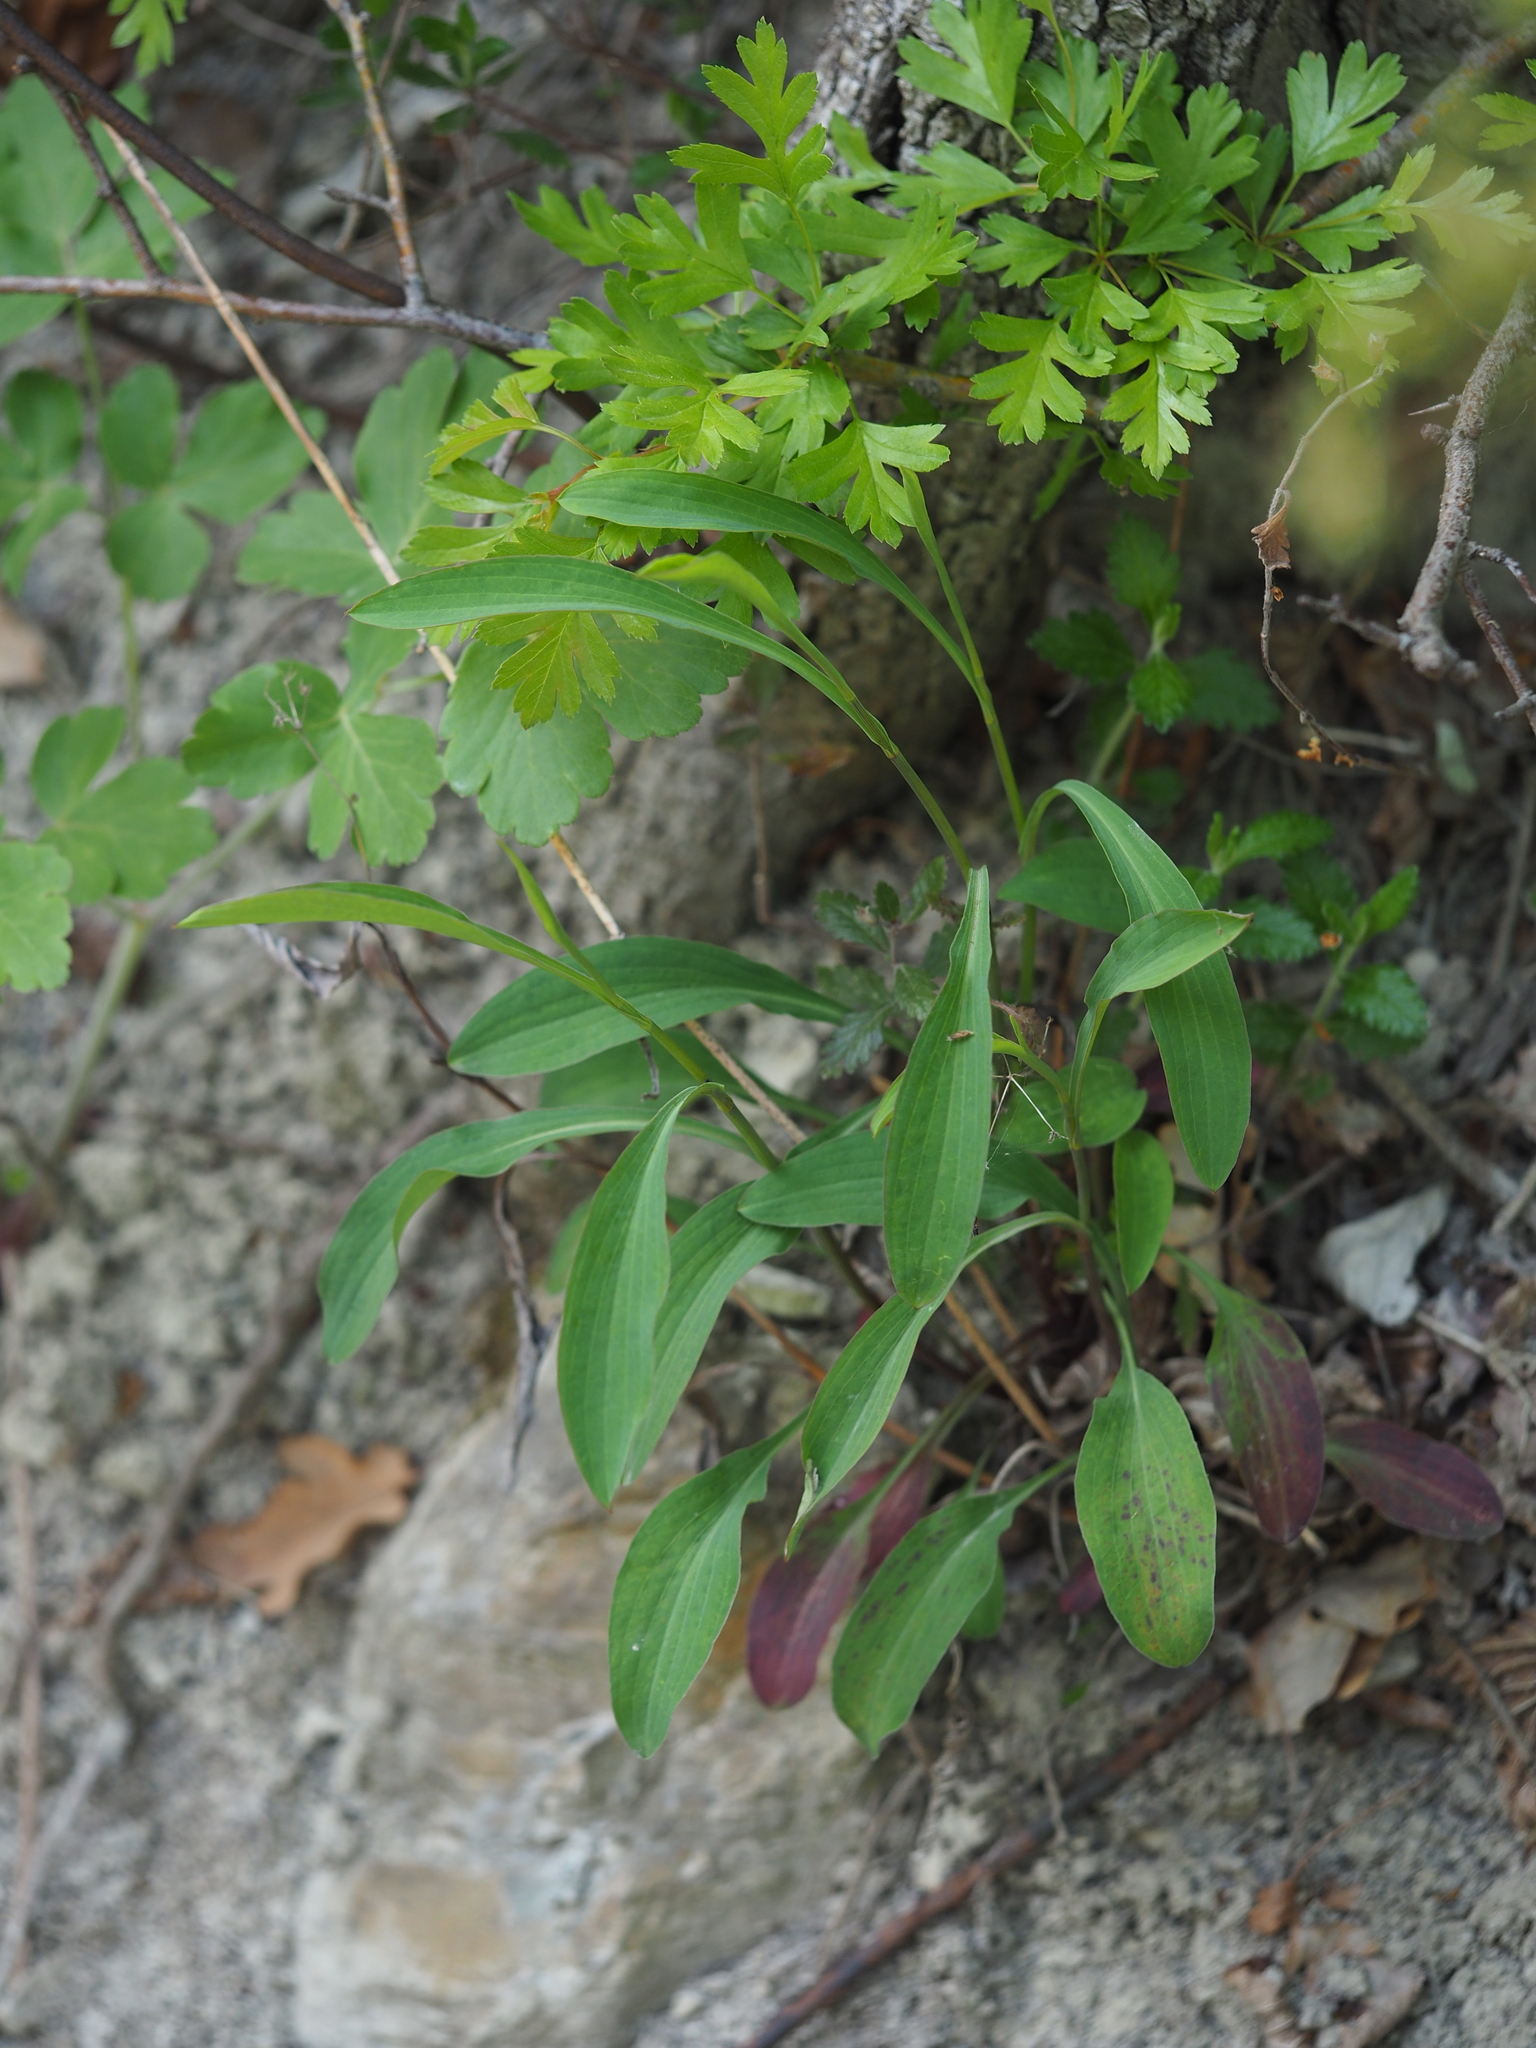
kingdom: Plantae
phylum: Tracheophyta
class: Magnoliopsida
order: Apiales
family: Apiaceae
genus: Bupleurum
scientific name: Bupleurum falcatum
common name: Sickle-leaved hare's-ear
